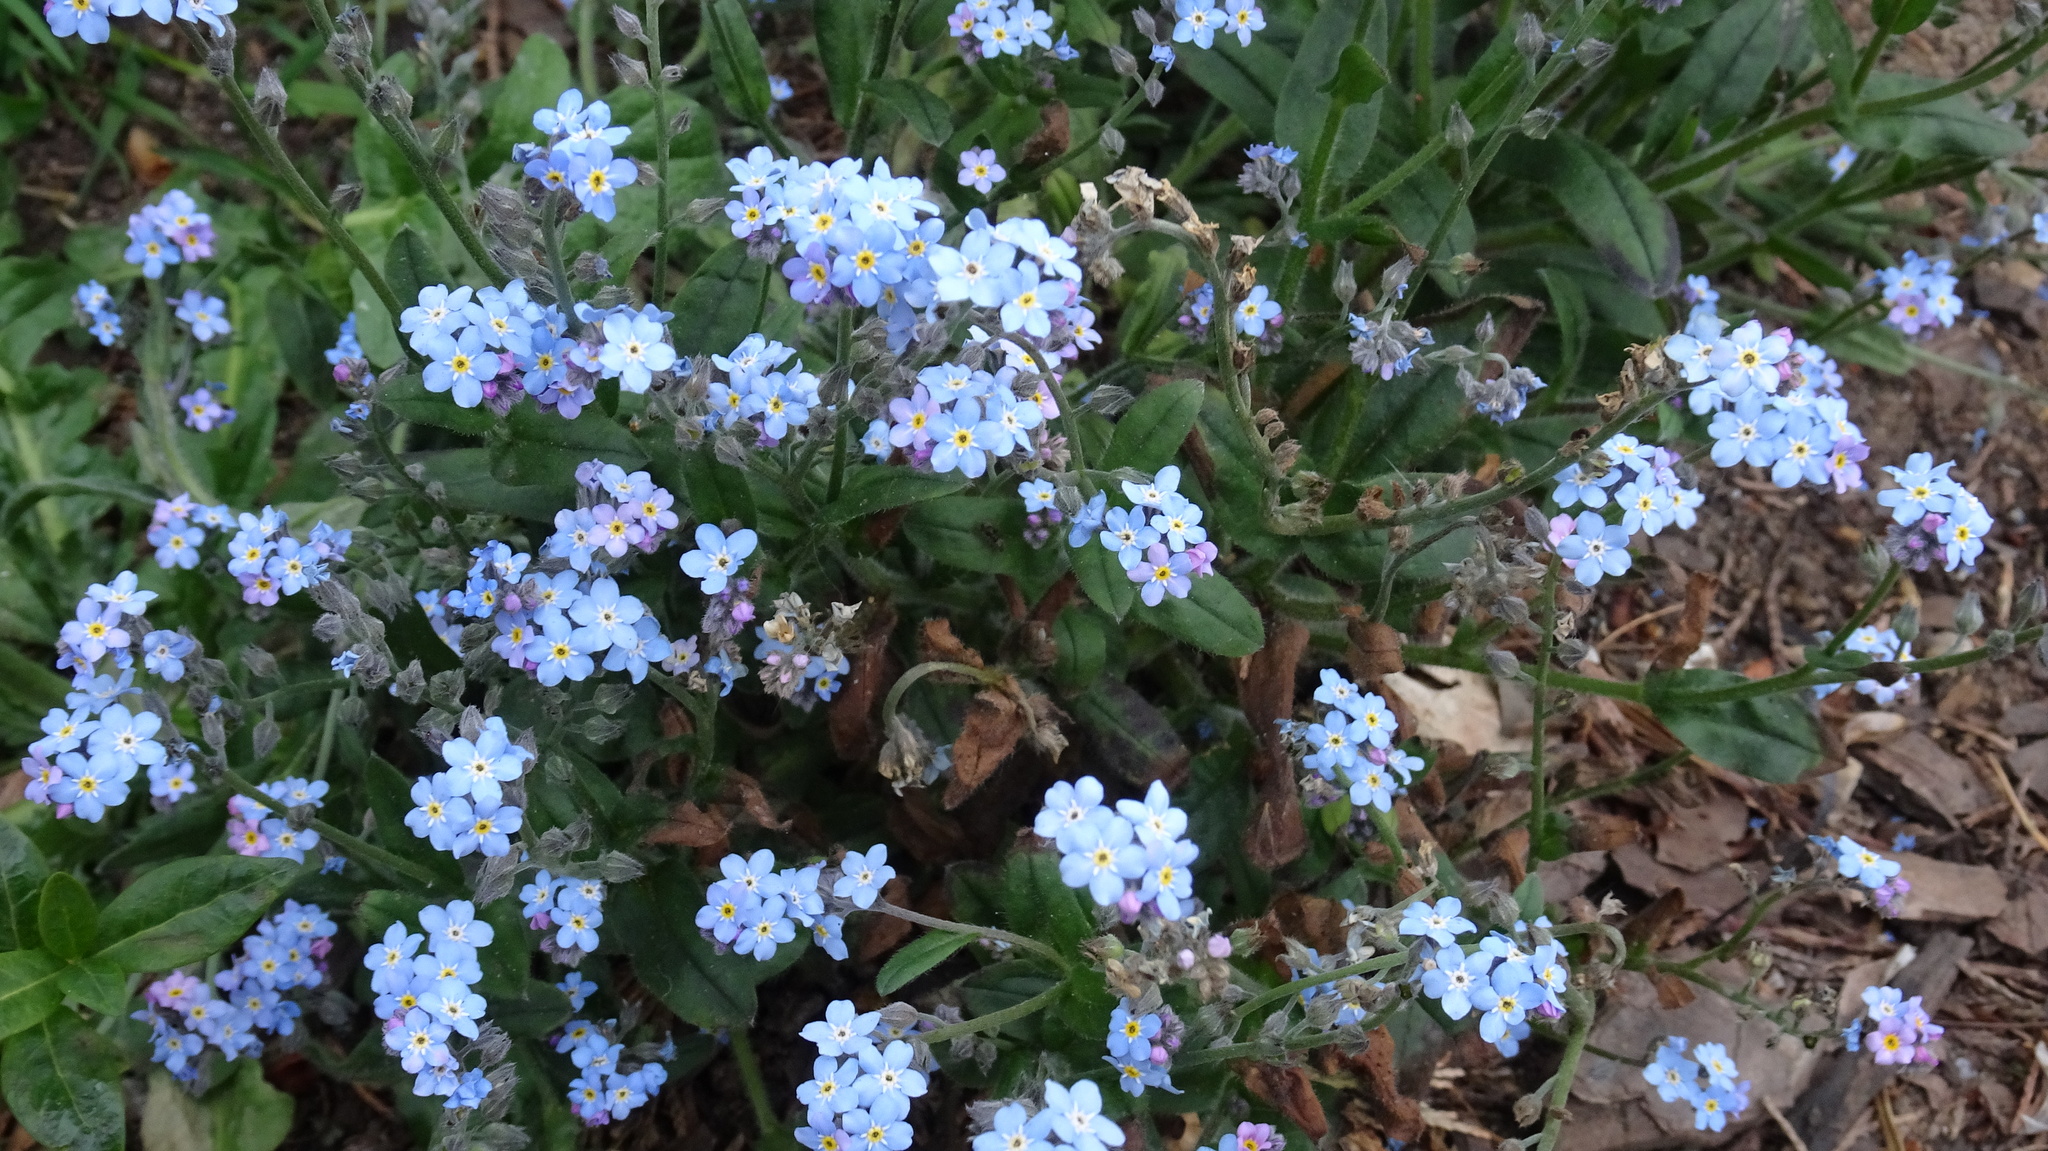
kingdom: Plantae
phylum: Tracheophyta
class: Magnoliopsida
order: Boraginales
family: Boraginaceae
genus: Myosotis
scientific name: Myosotis sylvatica
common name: Wood forget-me-not
